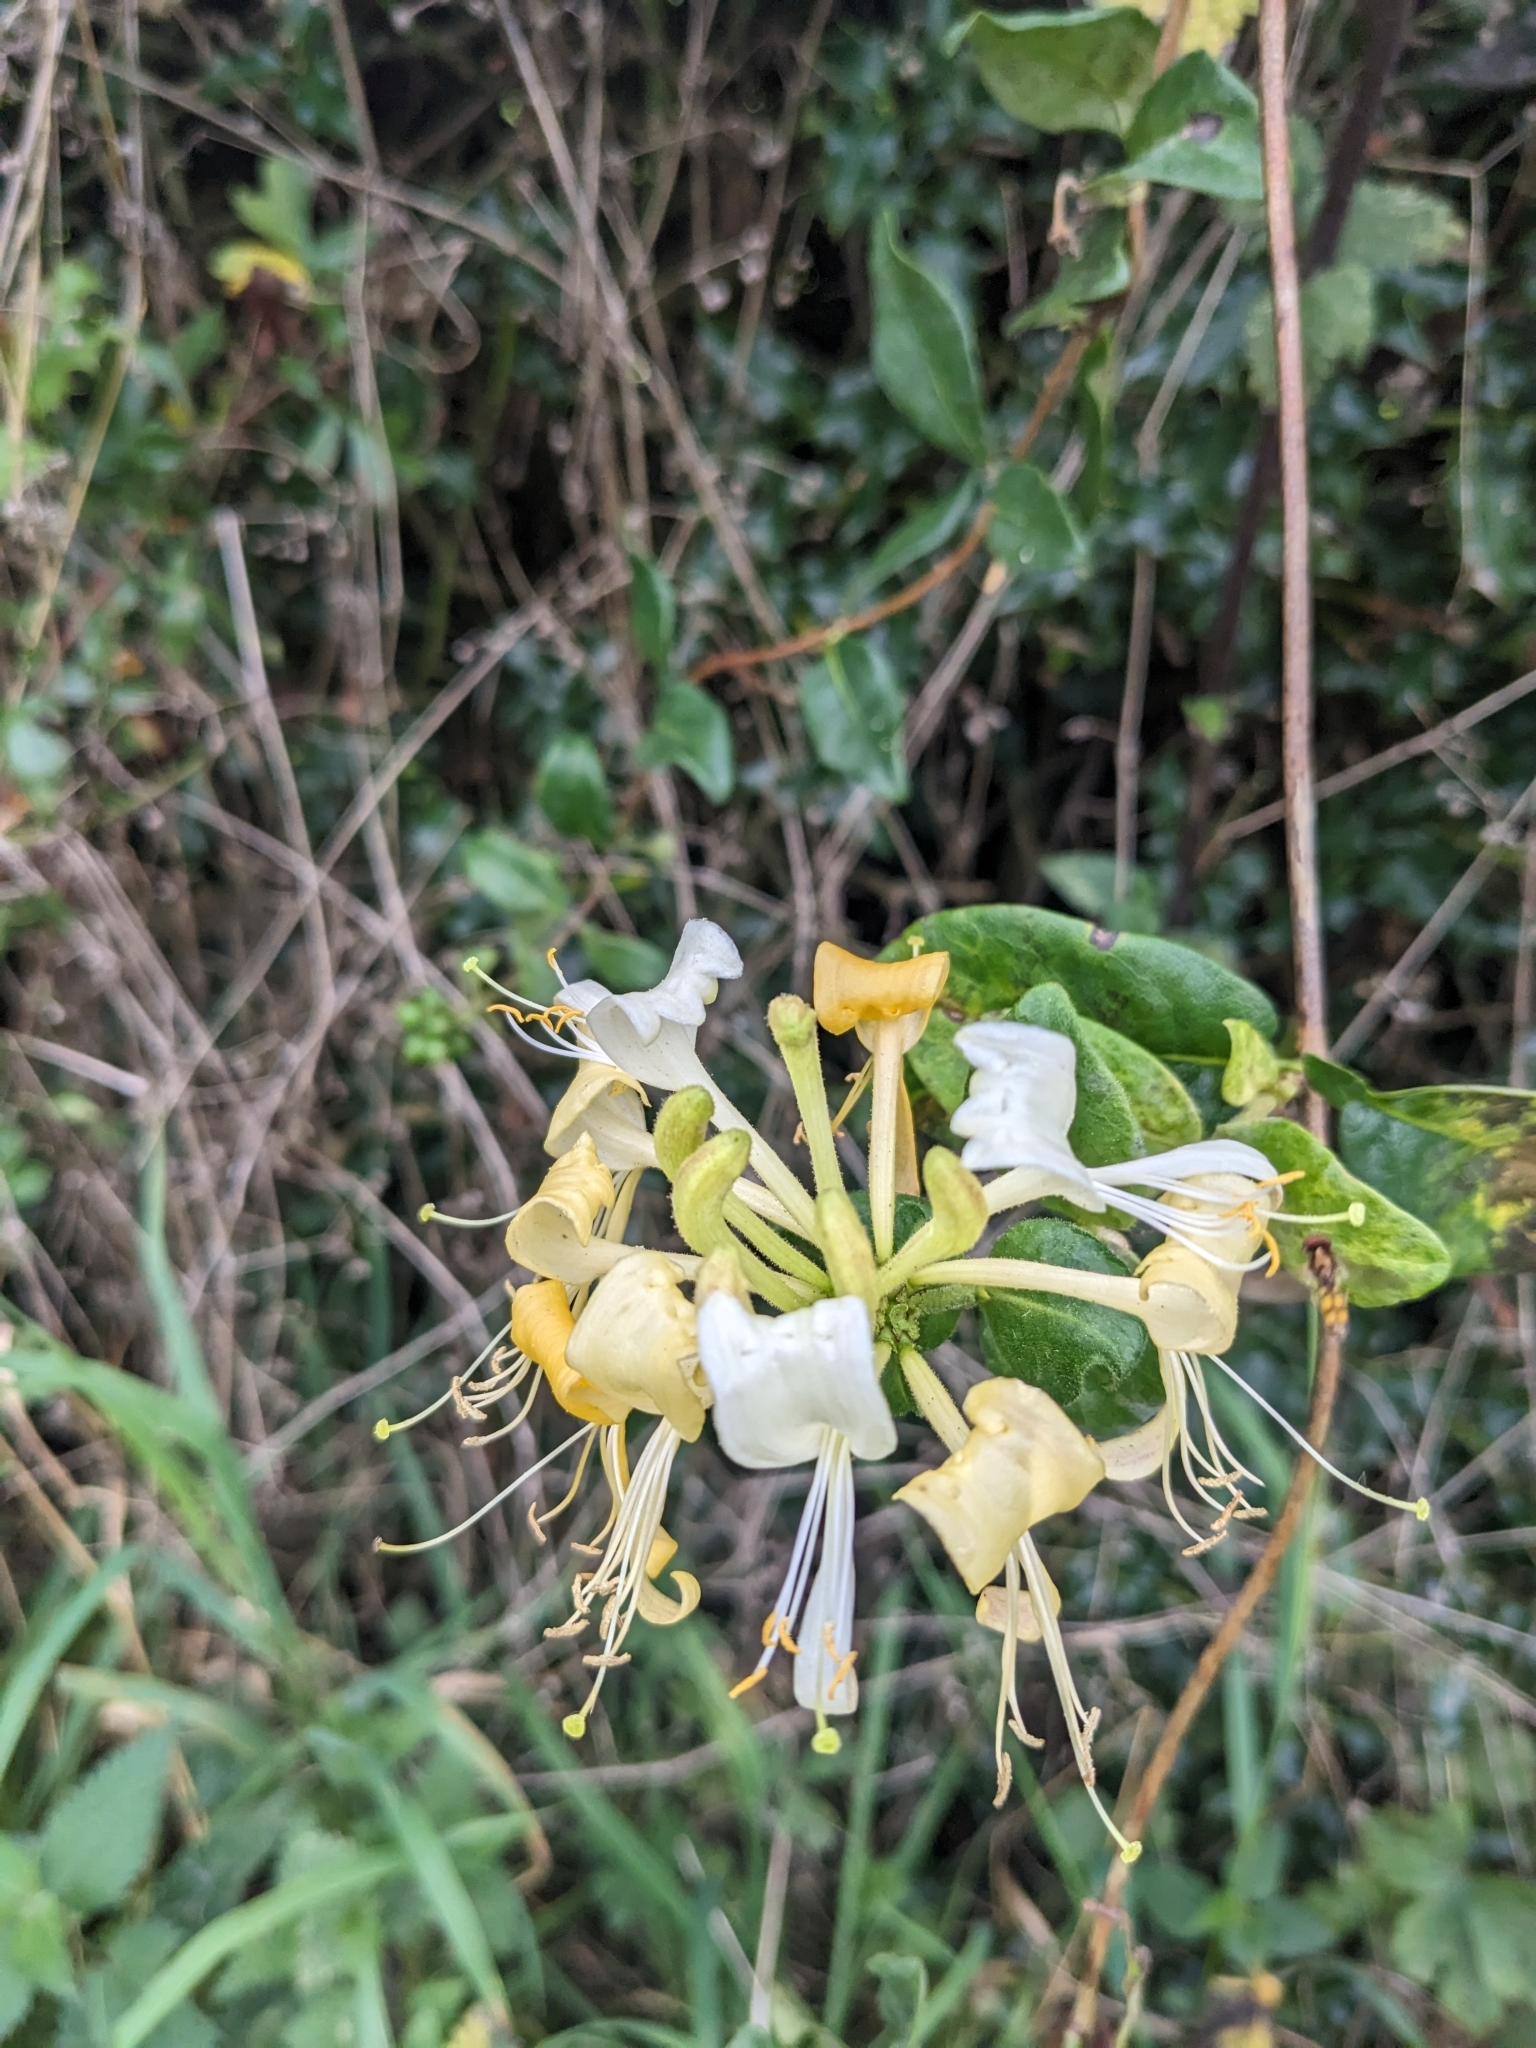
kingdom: Plantae
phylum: Tracheophyta
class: Magnoliopsida
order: Dipsacales
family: Caprifoliaceae
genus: Lonicera
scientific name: Lonicera periclymenum
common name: European honeysuckle
